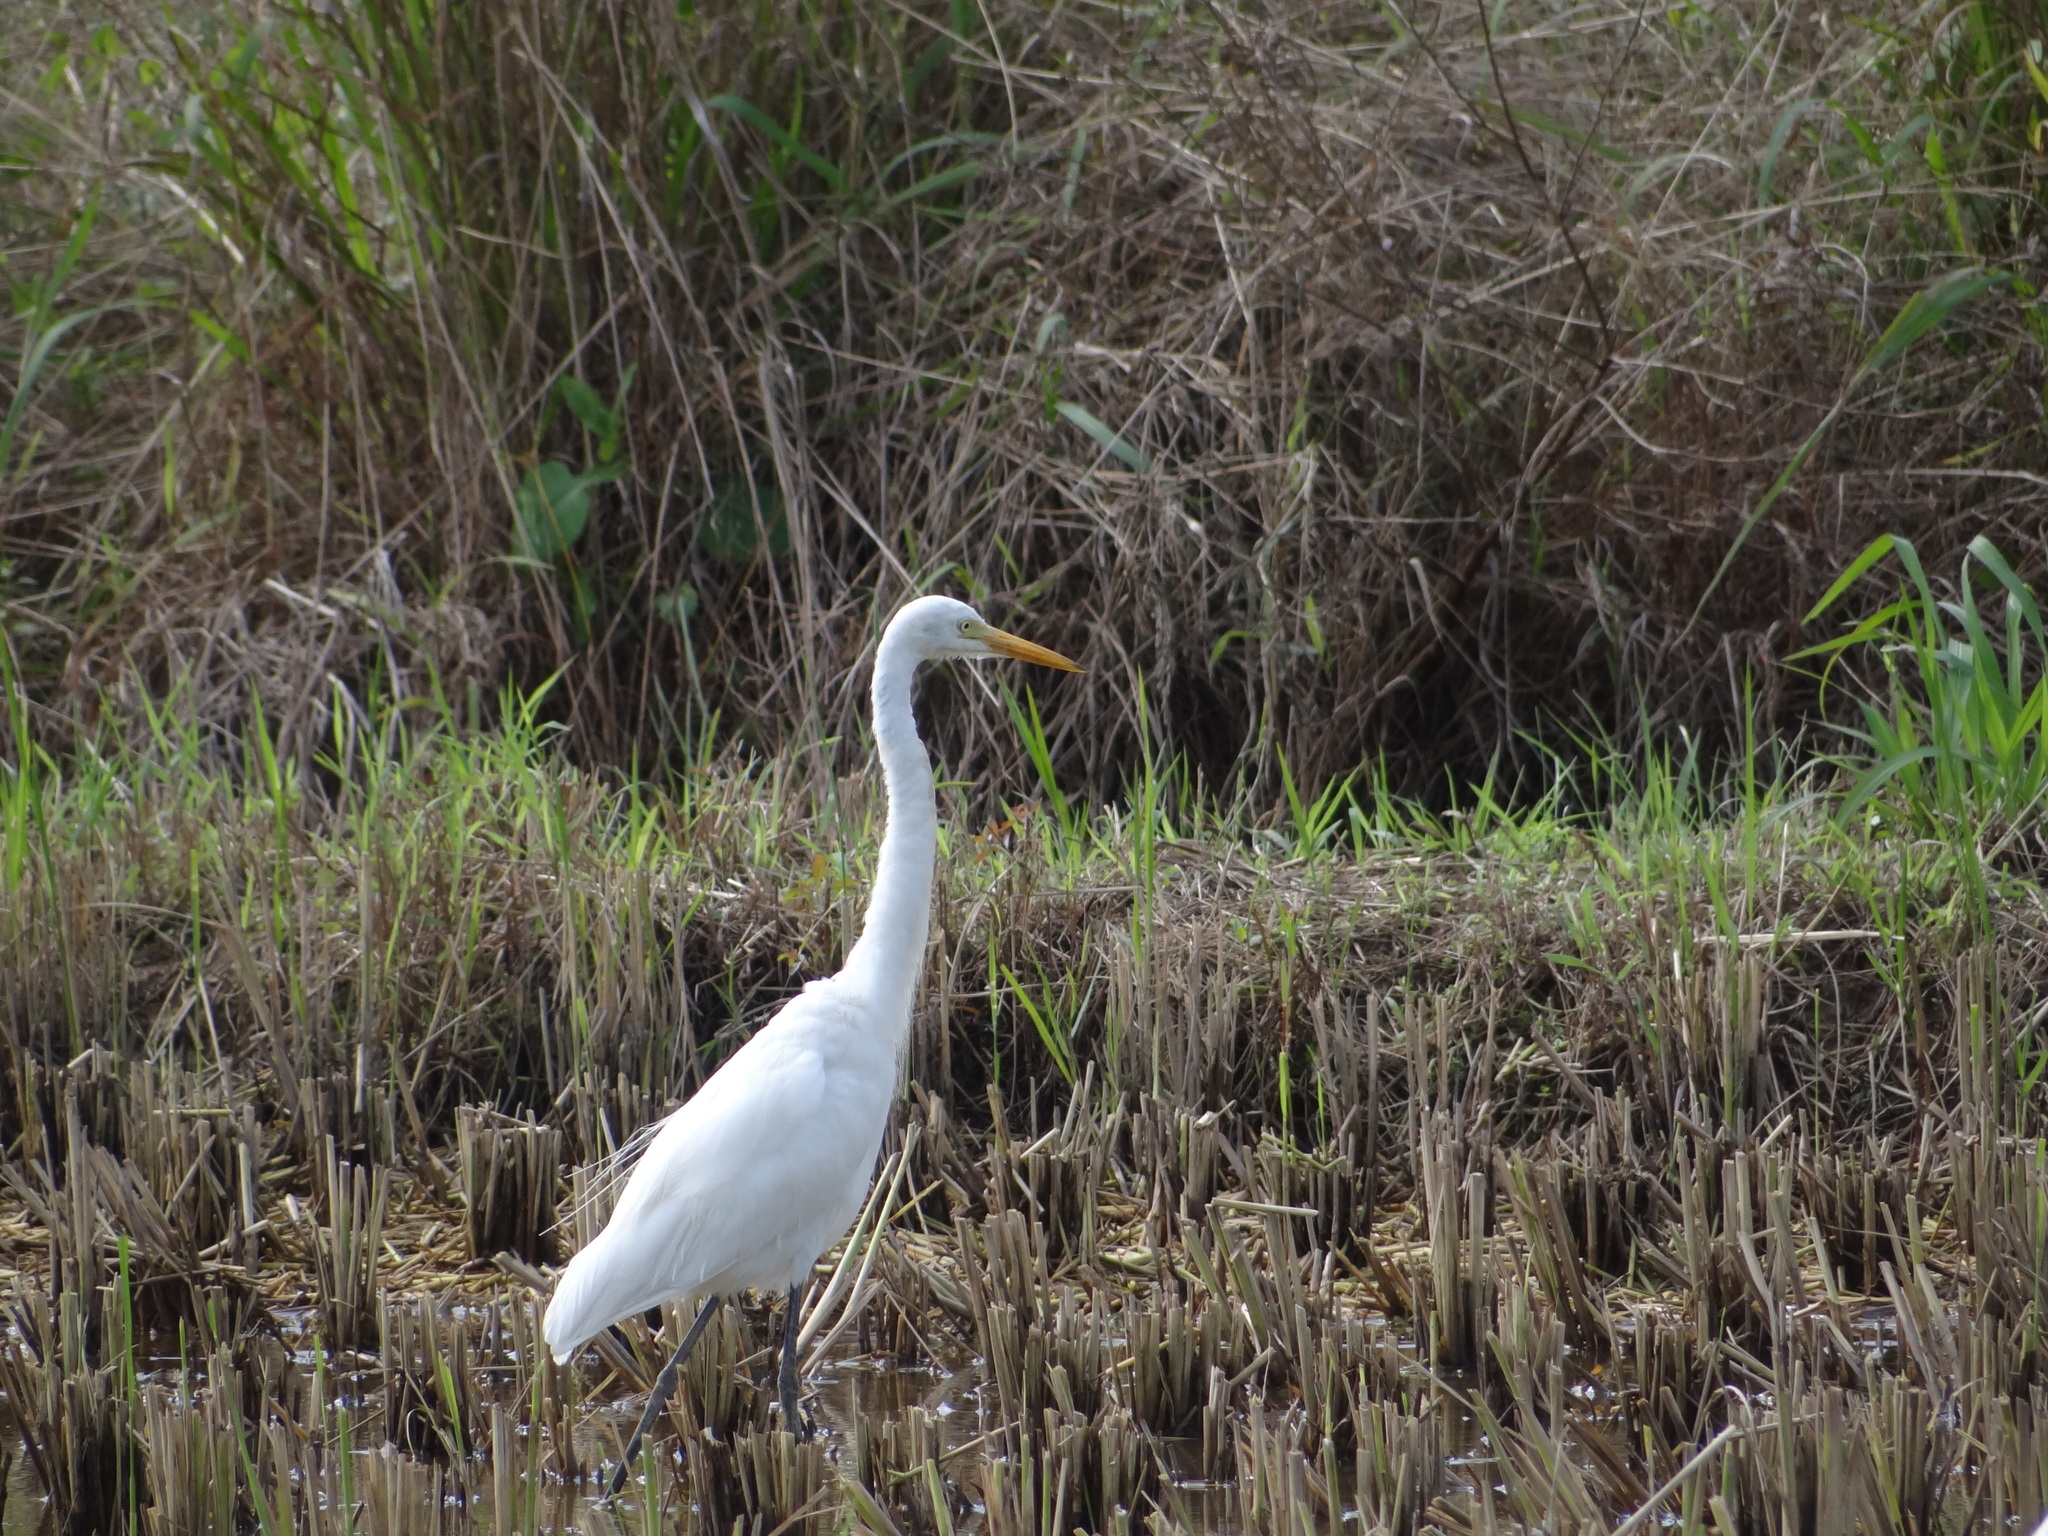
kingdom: Animalia
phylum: Chordata
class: Aves
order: Pelecaniformes
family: Ardeidae
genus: Egretta
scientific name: Egretta intermedia
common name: Intermediate egret
